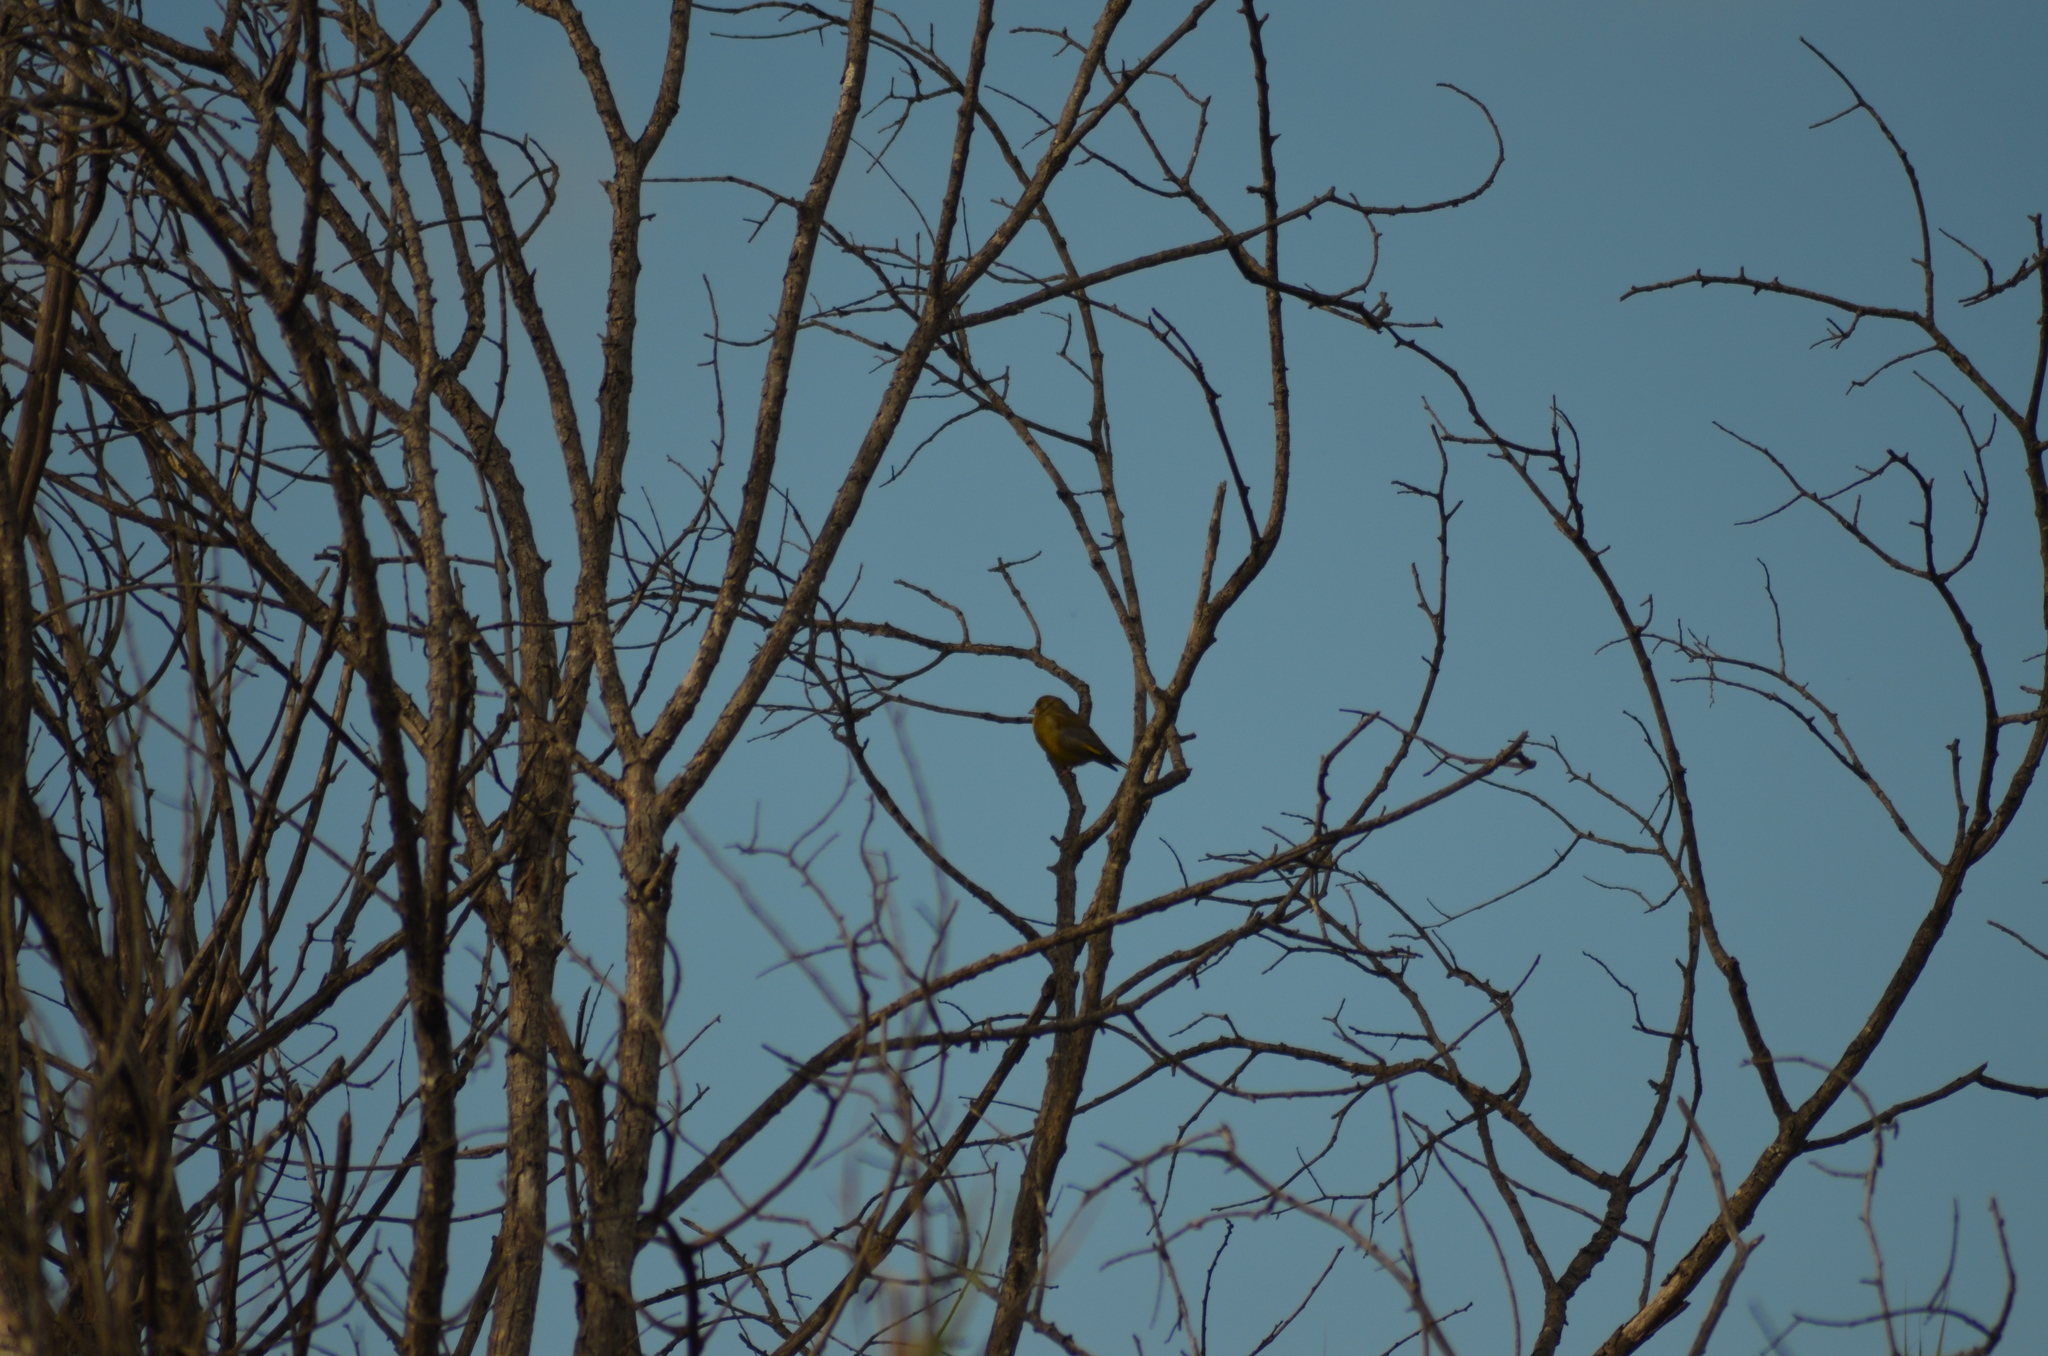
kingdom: Plantae
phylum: Tracheophyta
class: Liliopsida
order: Poales
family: Poaceae
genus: Chloris
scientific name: Chloris chloris
